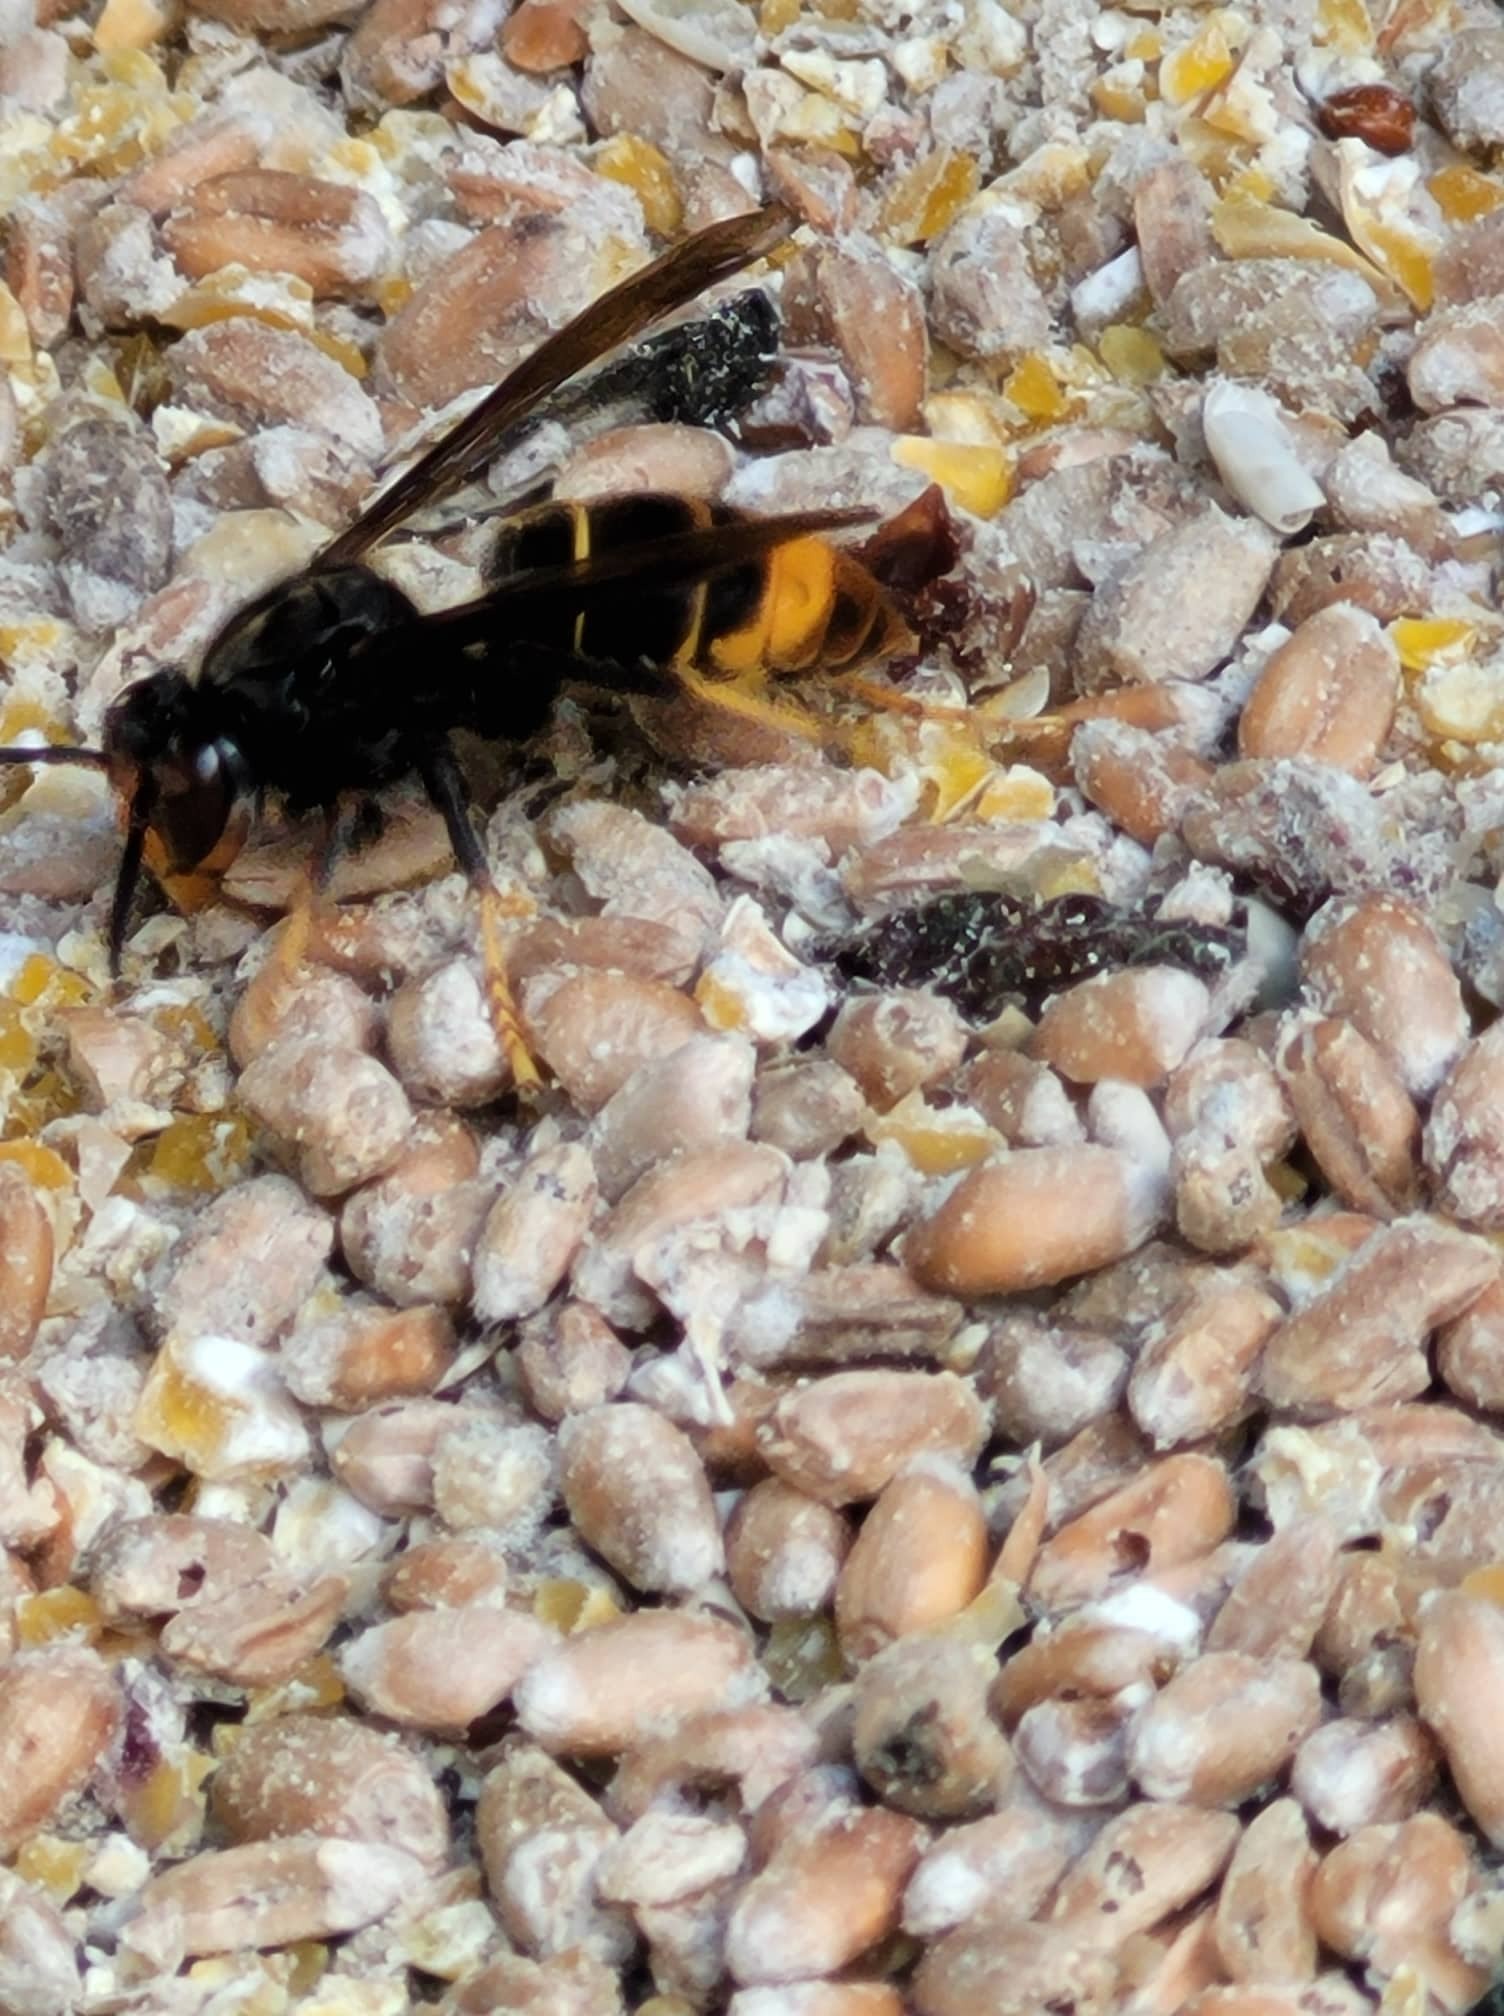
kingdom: Animalia
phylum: Arthropoda
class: Insecta
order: Hymenoptera
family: Vespidae
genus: Vespa
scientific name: Vespa velutina
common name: Asian hornet
